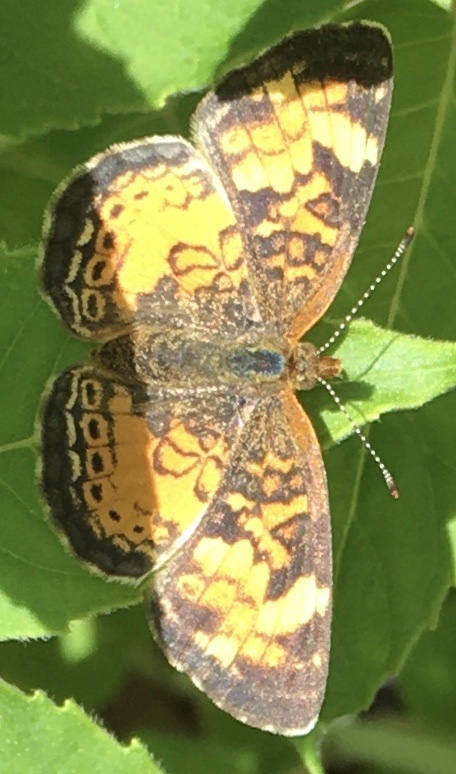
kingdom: Animalia
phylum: Arthropoda
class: Insecta
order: Lepidoptera
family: Nymphalidae
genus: Phyciodes
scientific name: Phyciodes tharos
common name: Pearl crescent
